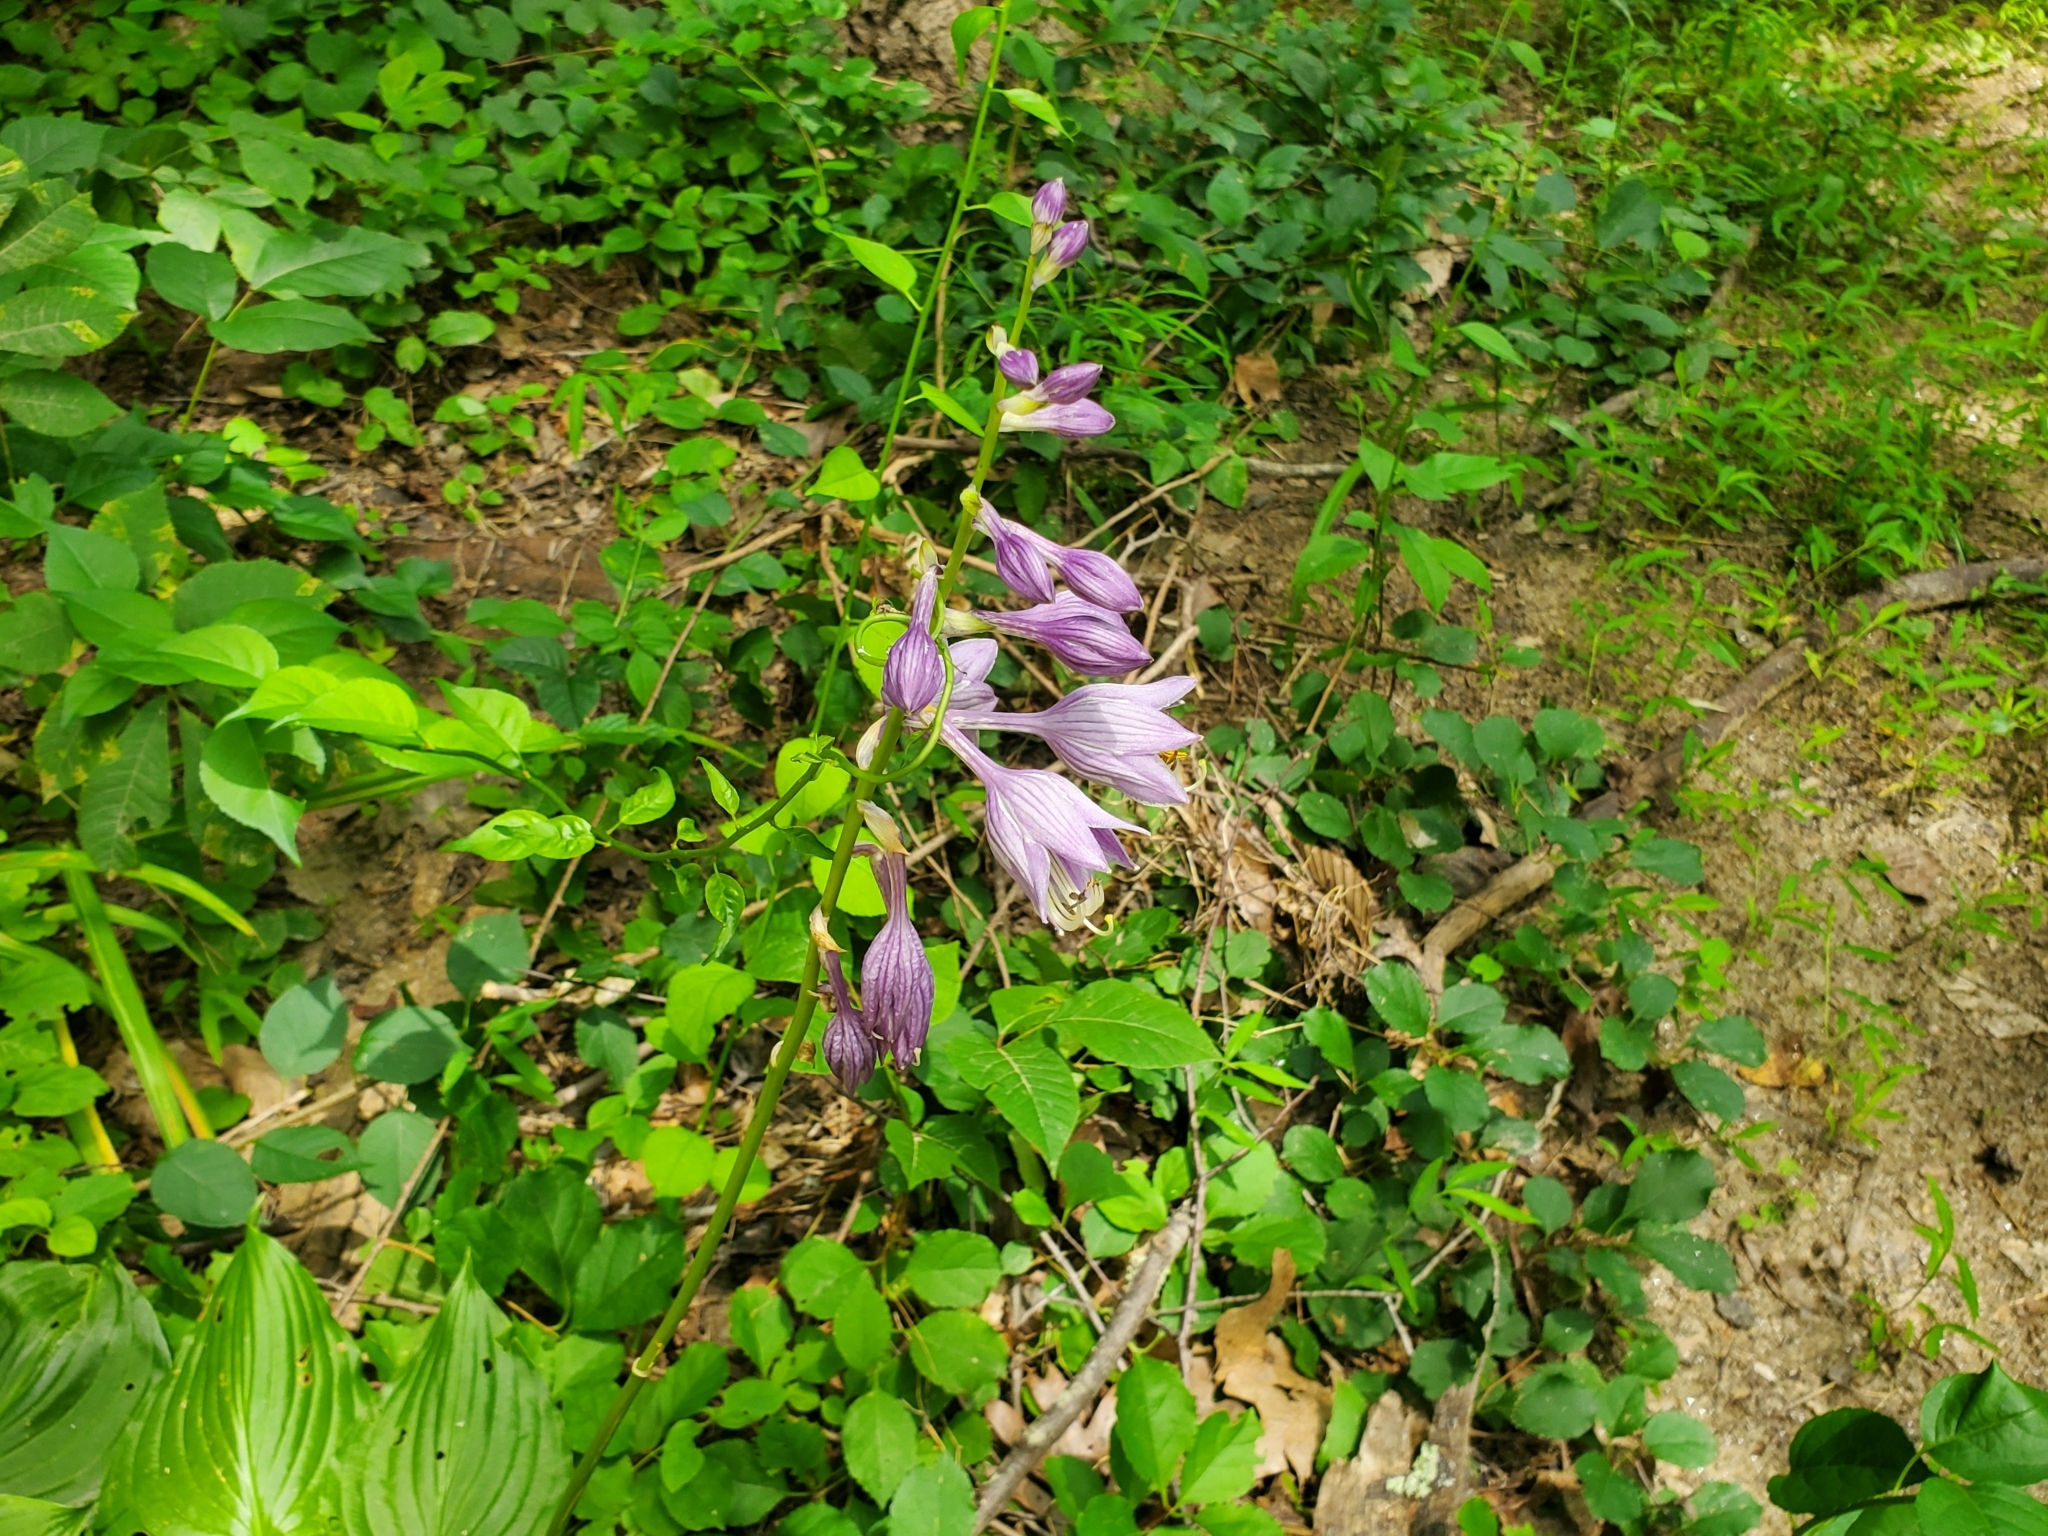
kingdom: Plantae
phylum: Tracheophyta
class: Liliopsida
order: Asparagales
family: Asparagaceae
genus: Hosta
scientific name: Hosta ventricosa
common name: Blue plantain-lily
